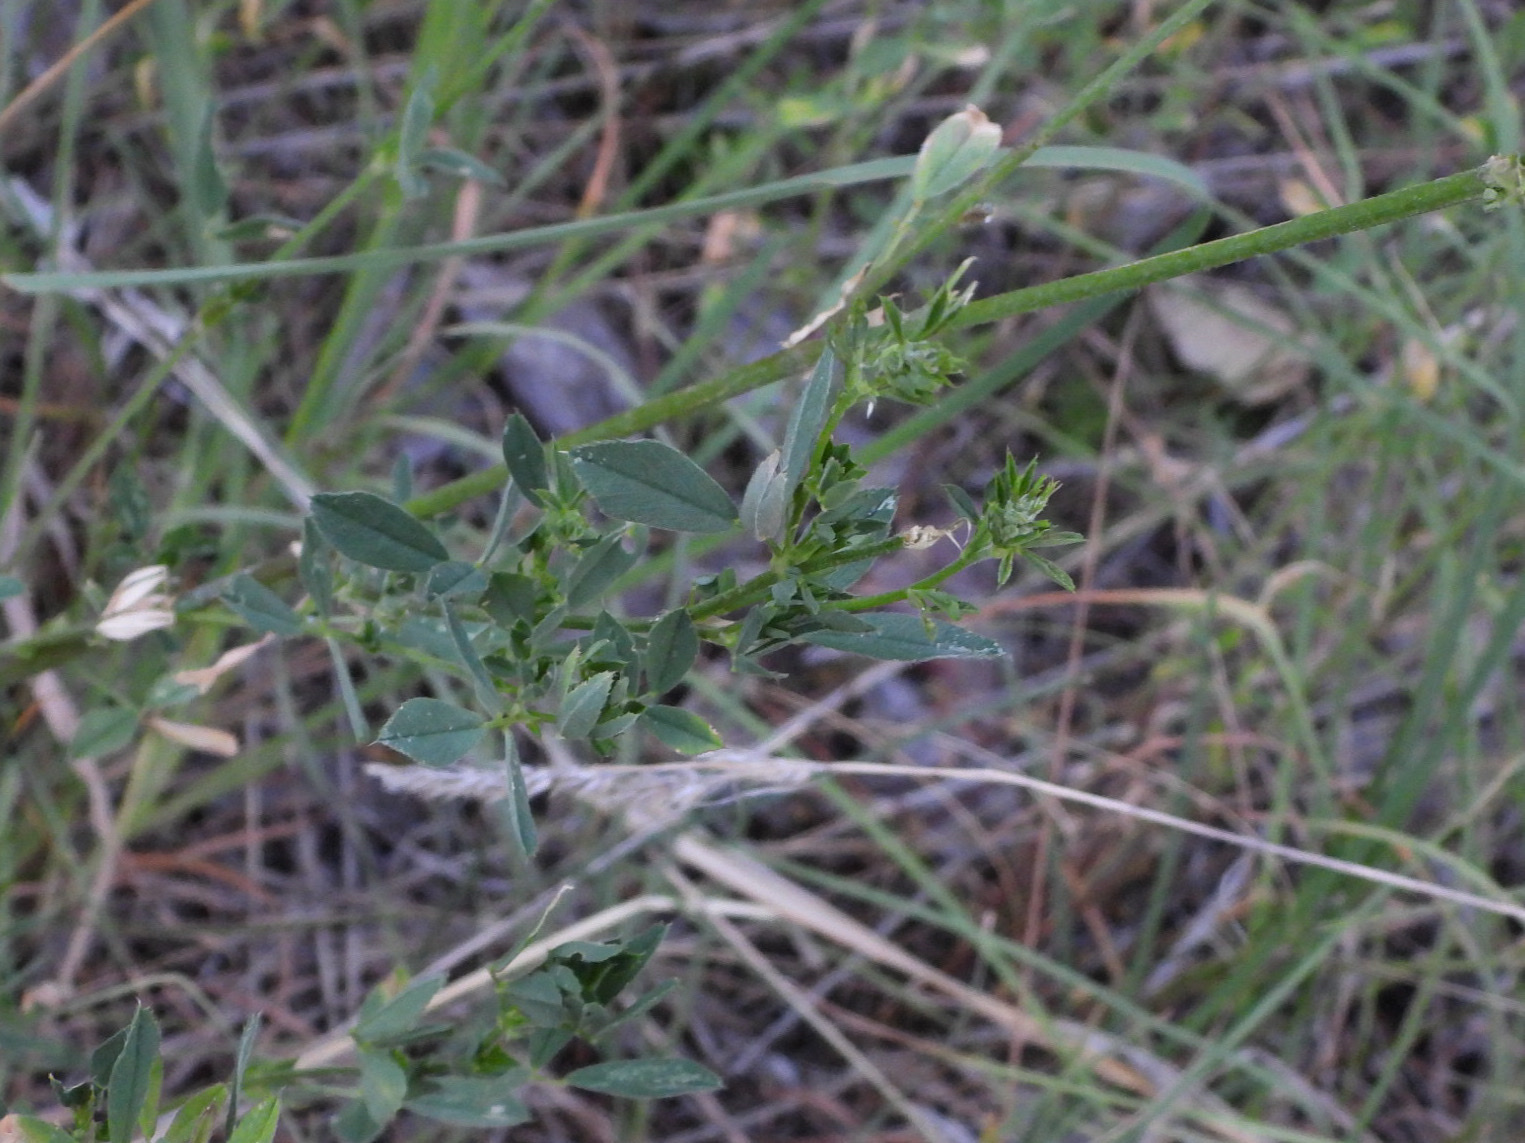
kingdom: Plantae
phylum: Tracheophyta
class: Magnoliopsida
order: Fabales
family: Fabaceae
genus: Medicago
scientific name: Medicago sativa
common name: Alfalfa
